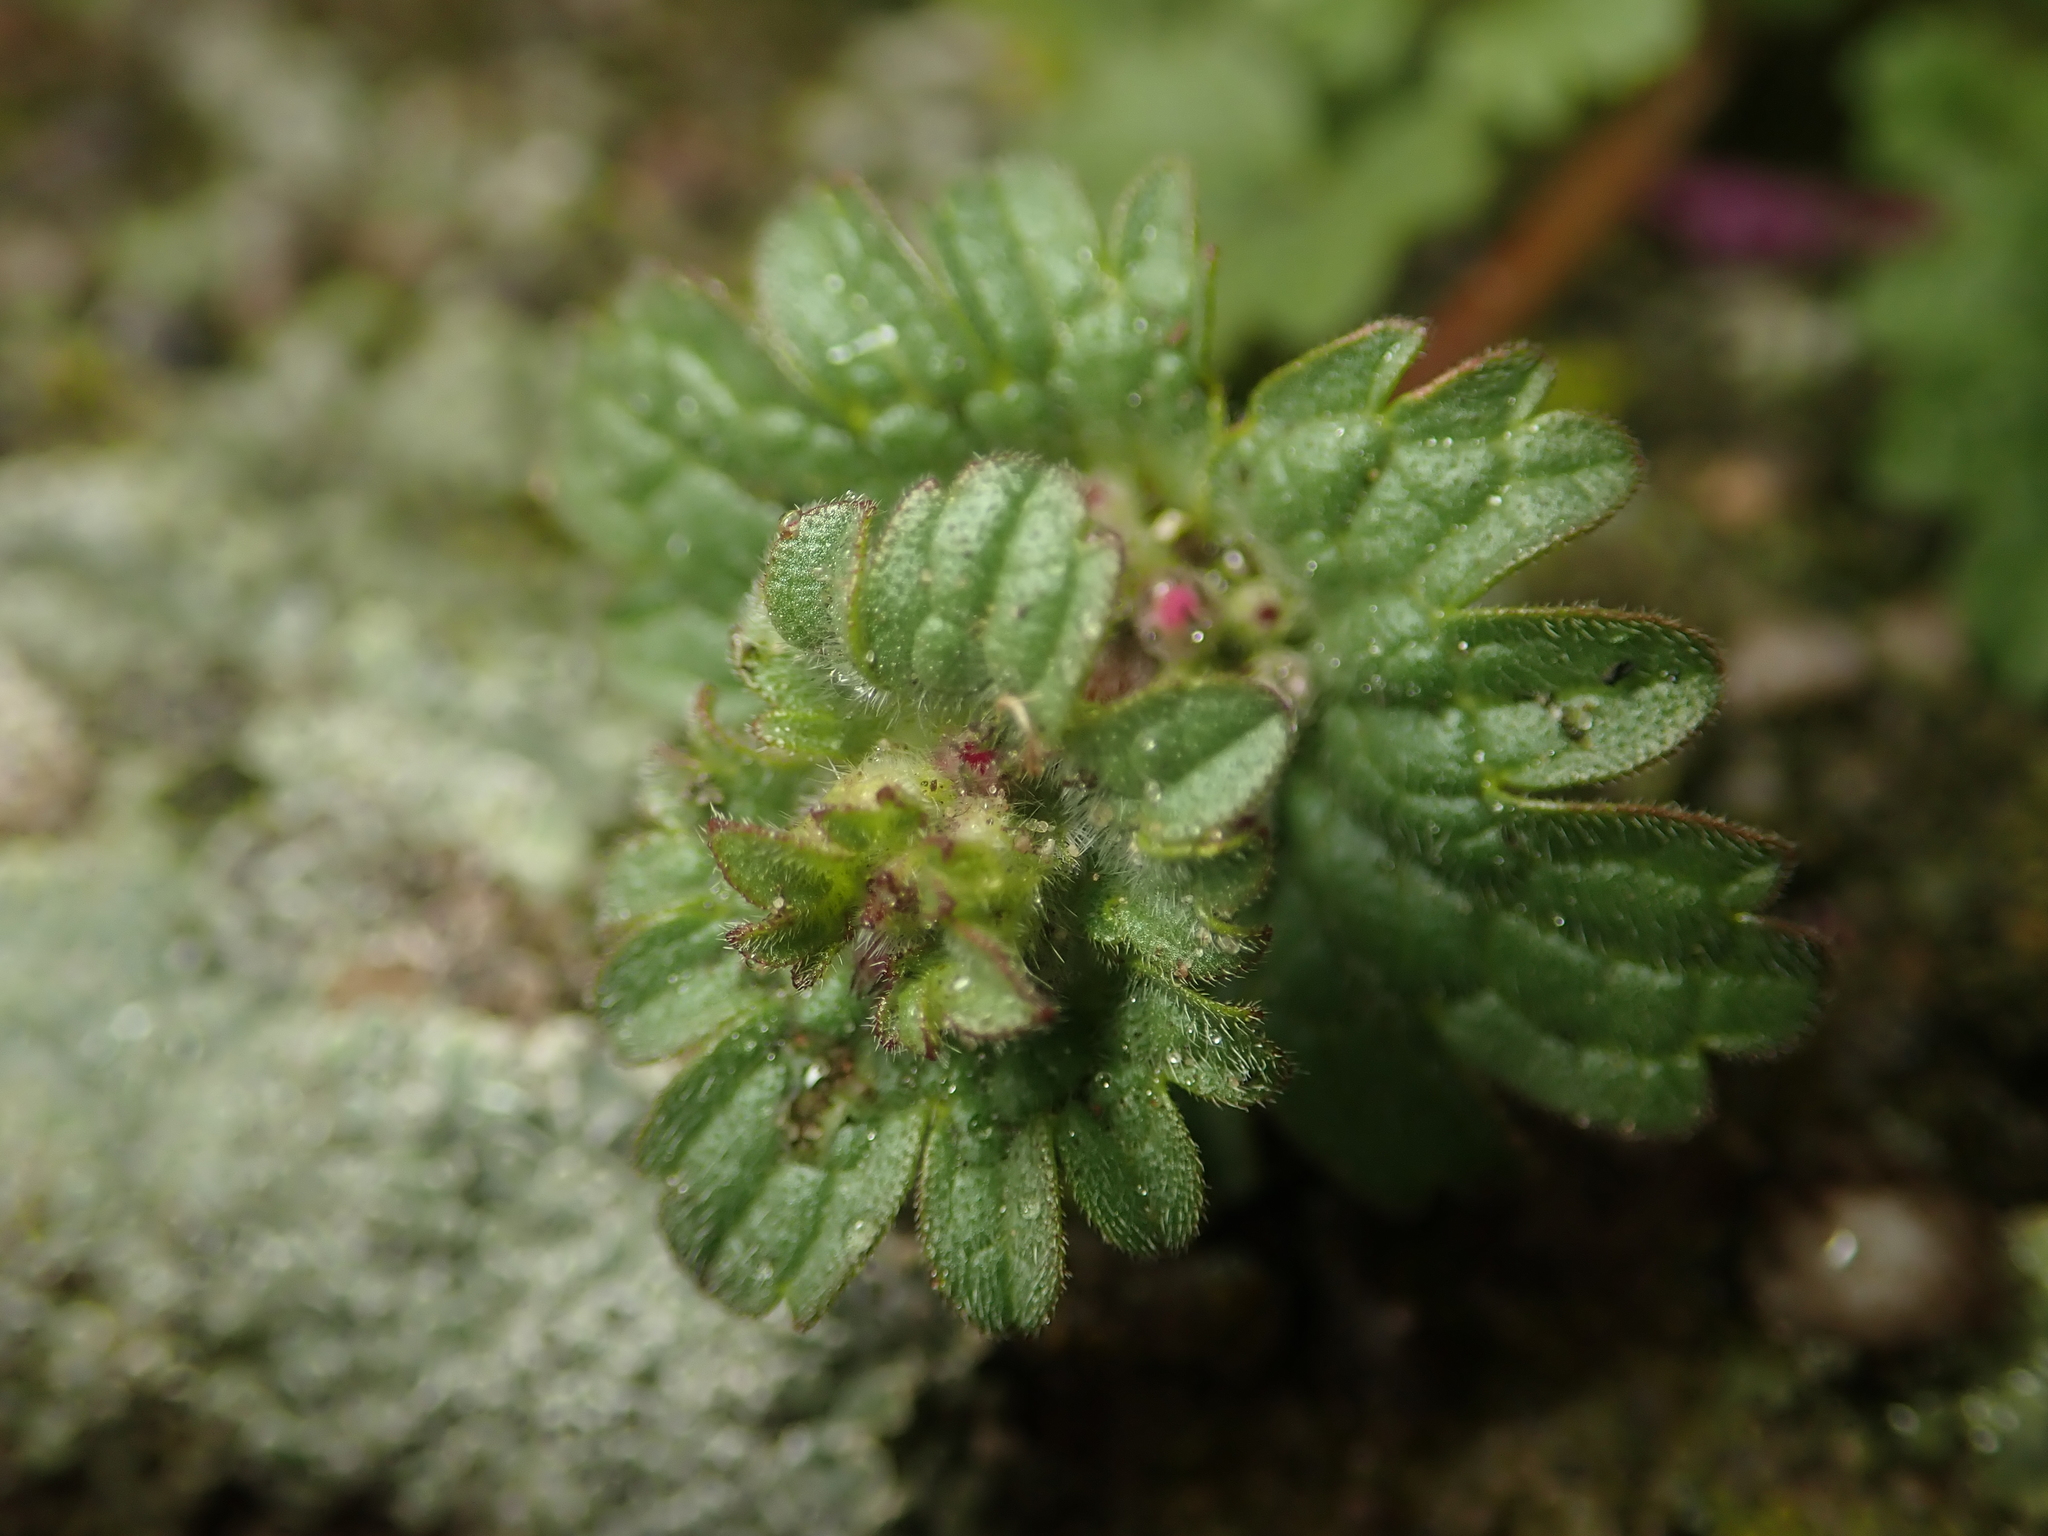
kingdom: Plantae
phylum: Tracheophyta
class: Magnoliopsida
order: Lamiales
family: Lamiaceae
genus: Lamium
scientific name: Lamium amplexicaule
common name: Henbit dead-nettle
